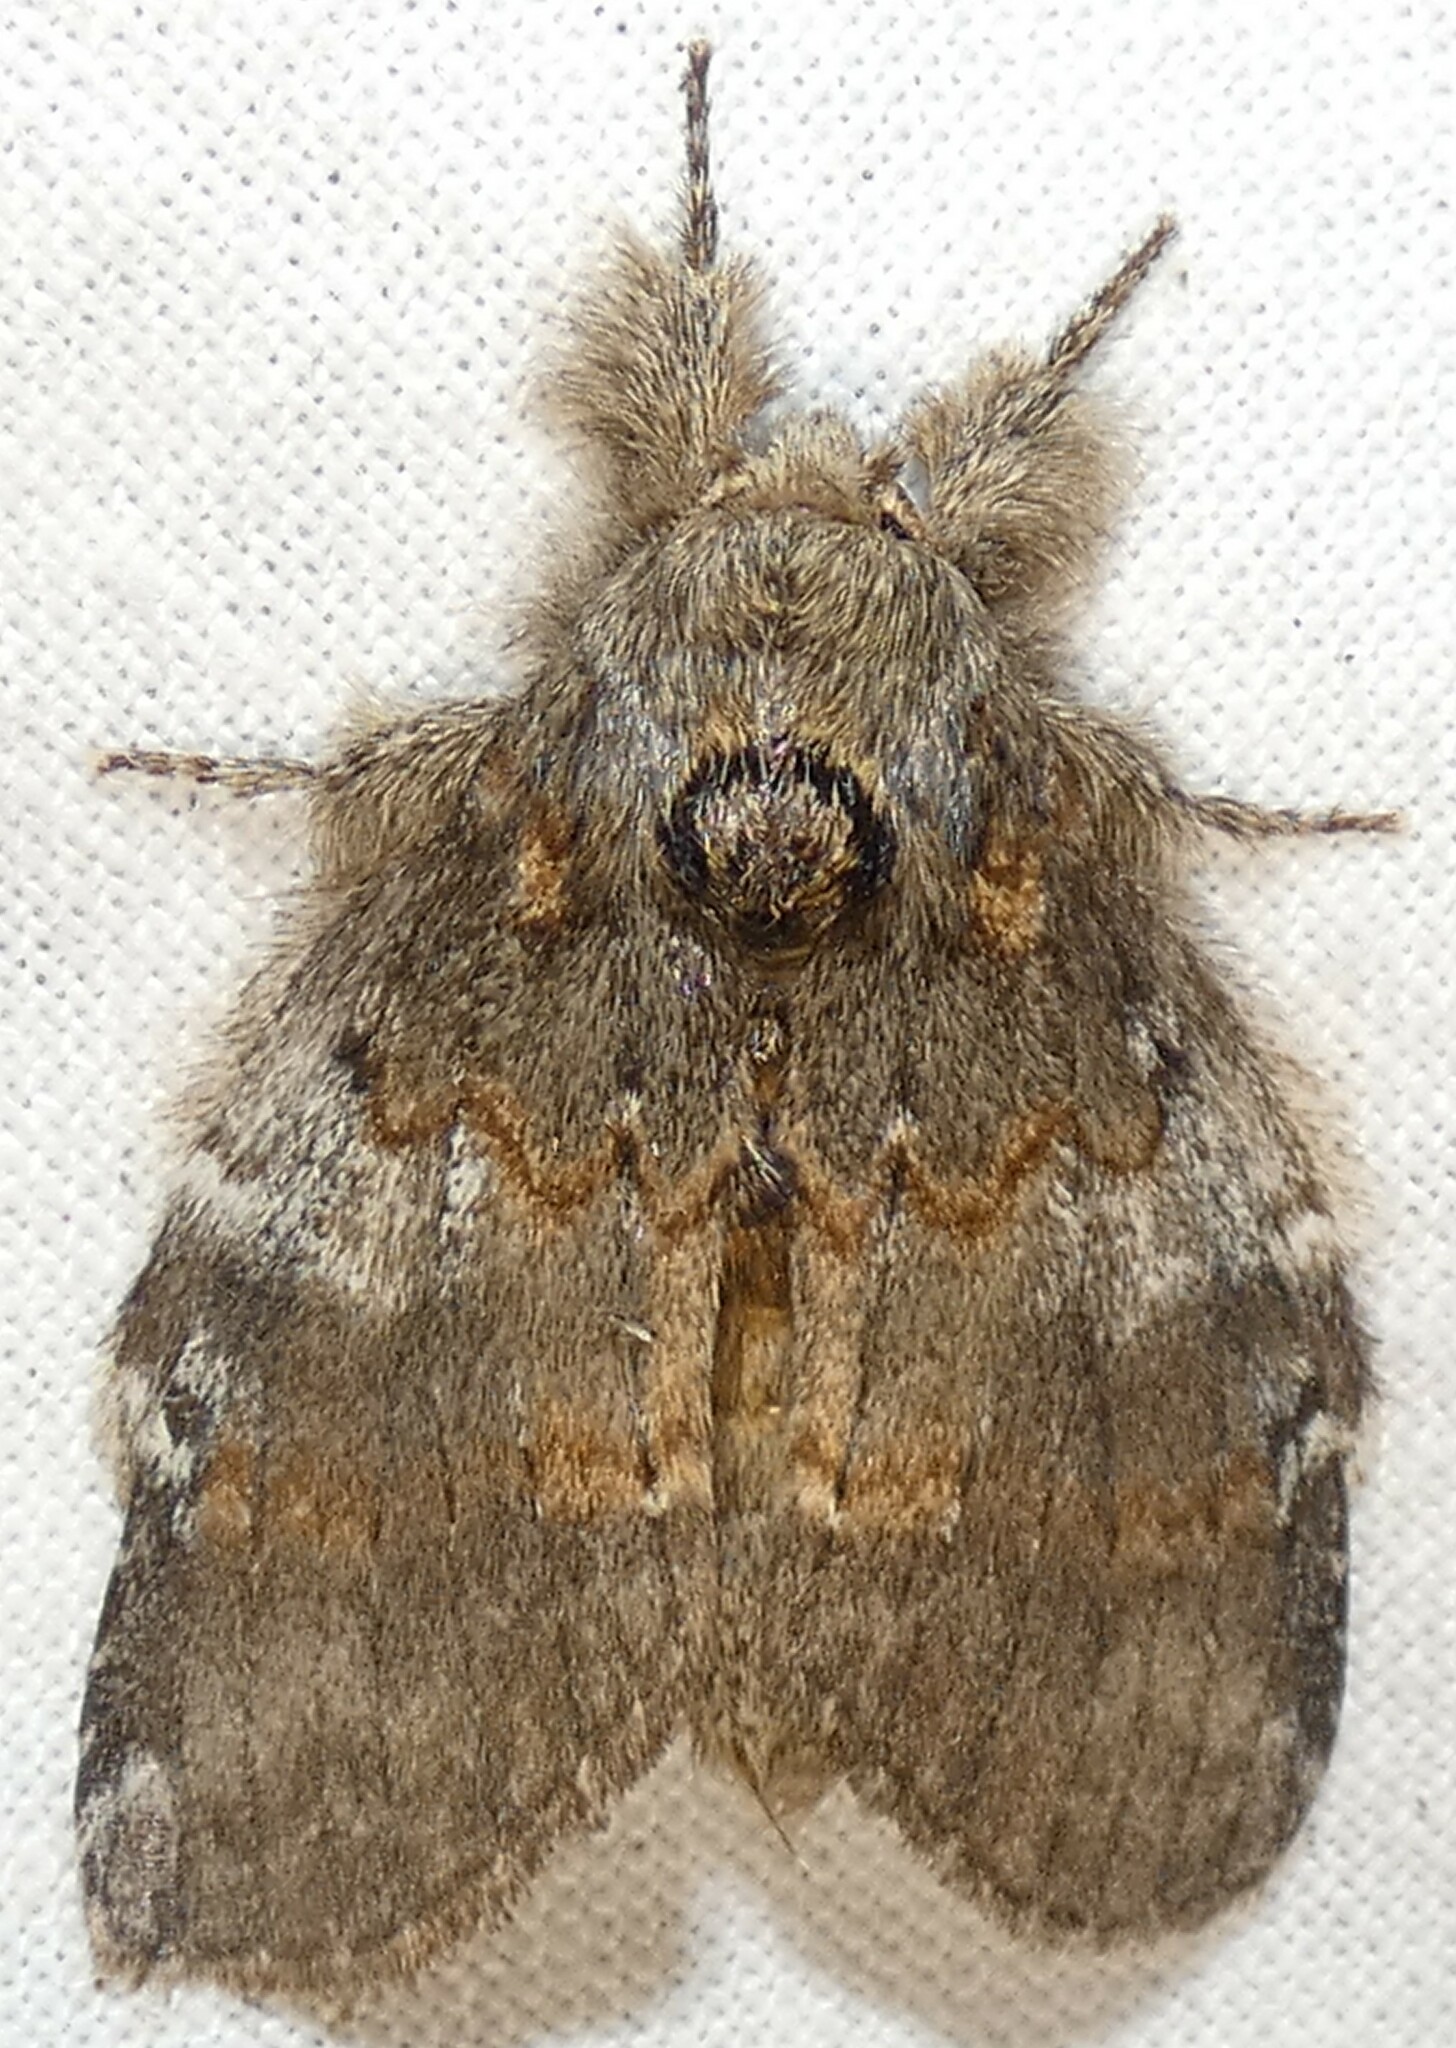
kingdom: Animalia
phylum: Arthropoda
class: Insecta
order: Lepidoptera
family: Notodontidae
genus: Peridea
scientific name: Peridea angulosa
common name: Angulose prominent
